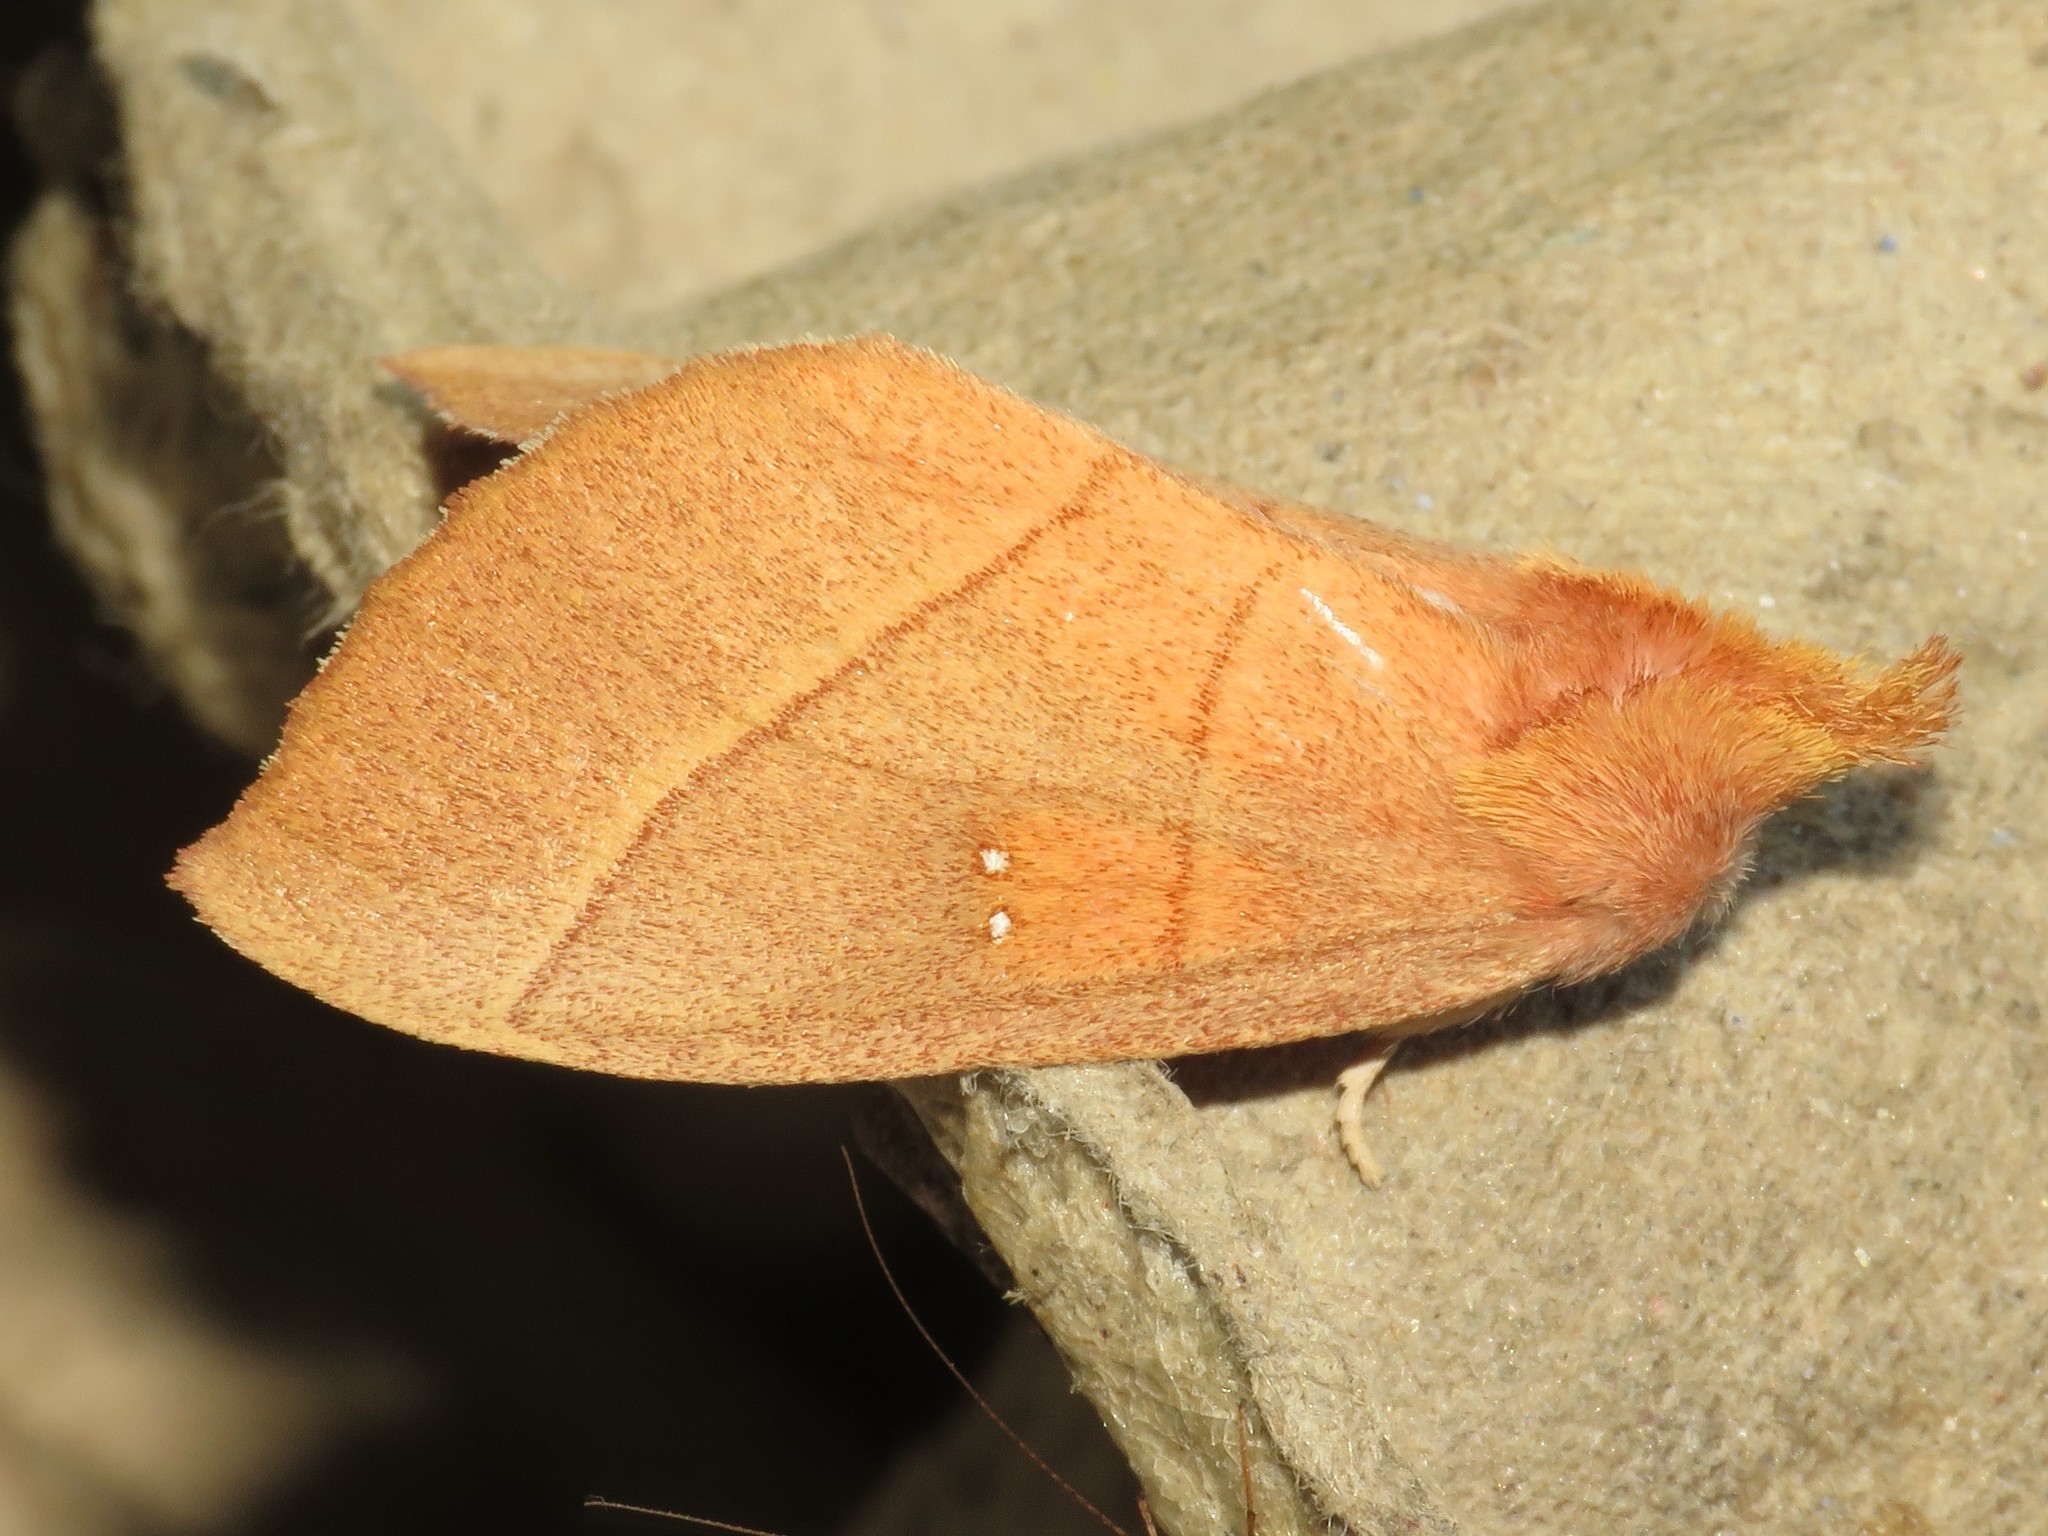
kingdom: Animalia
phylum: Arthropoda
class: Insecta
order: Lepidoptera
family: Notodontidae
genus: Nadata
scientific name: Nadata gibbosa
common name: White-dotted prominent
